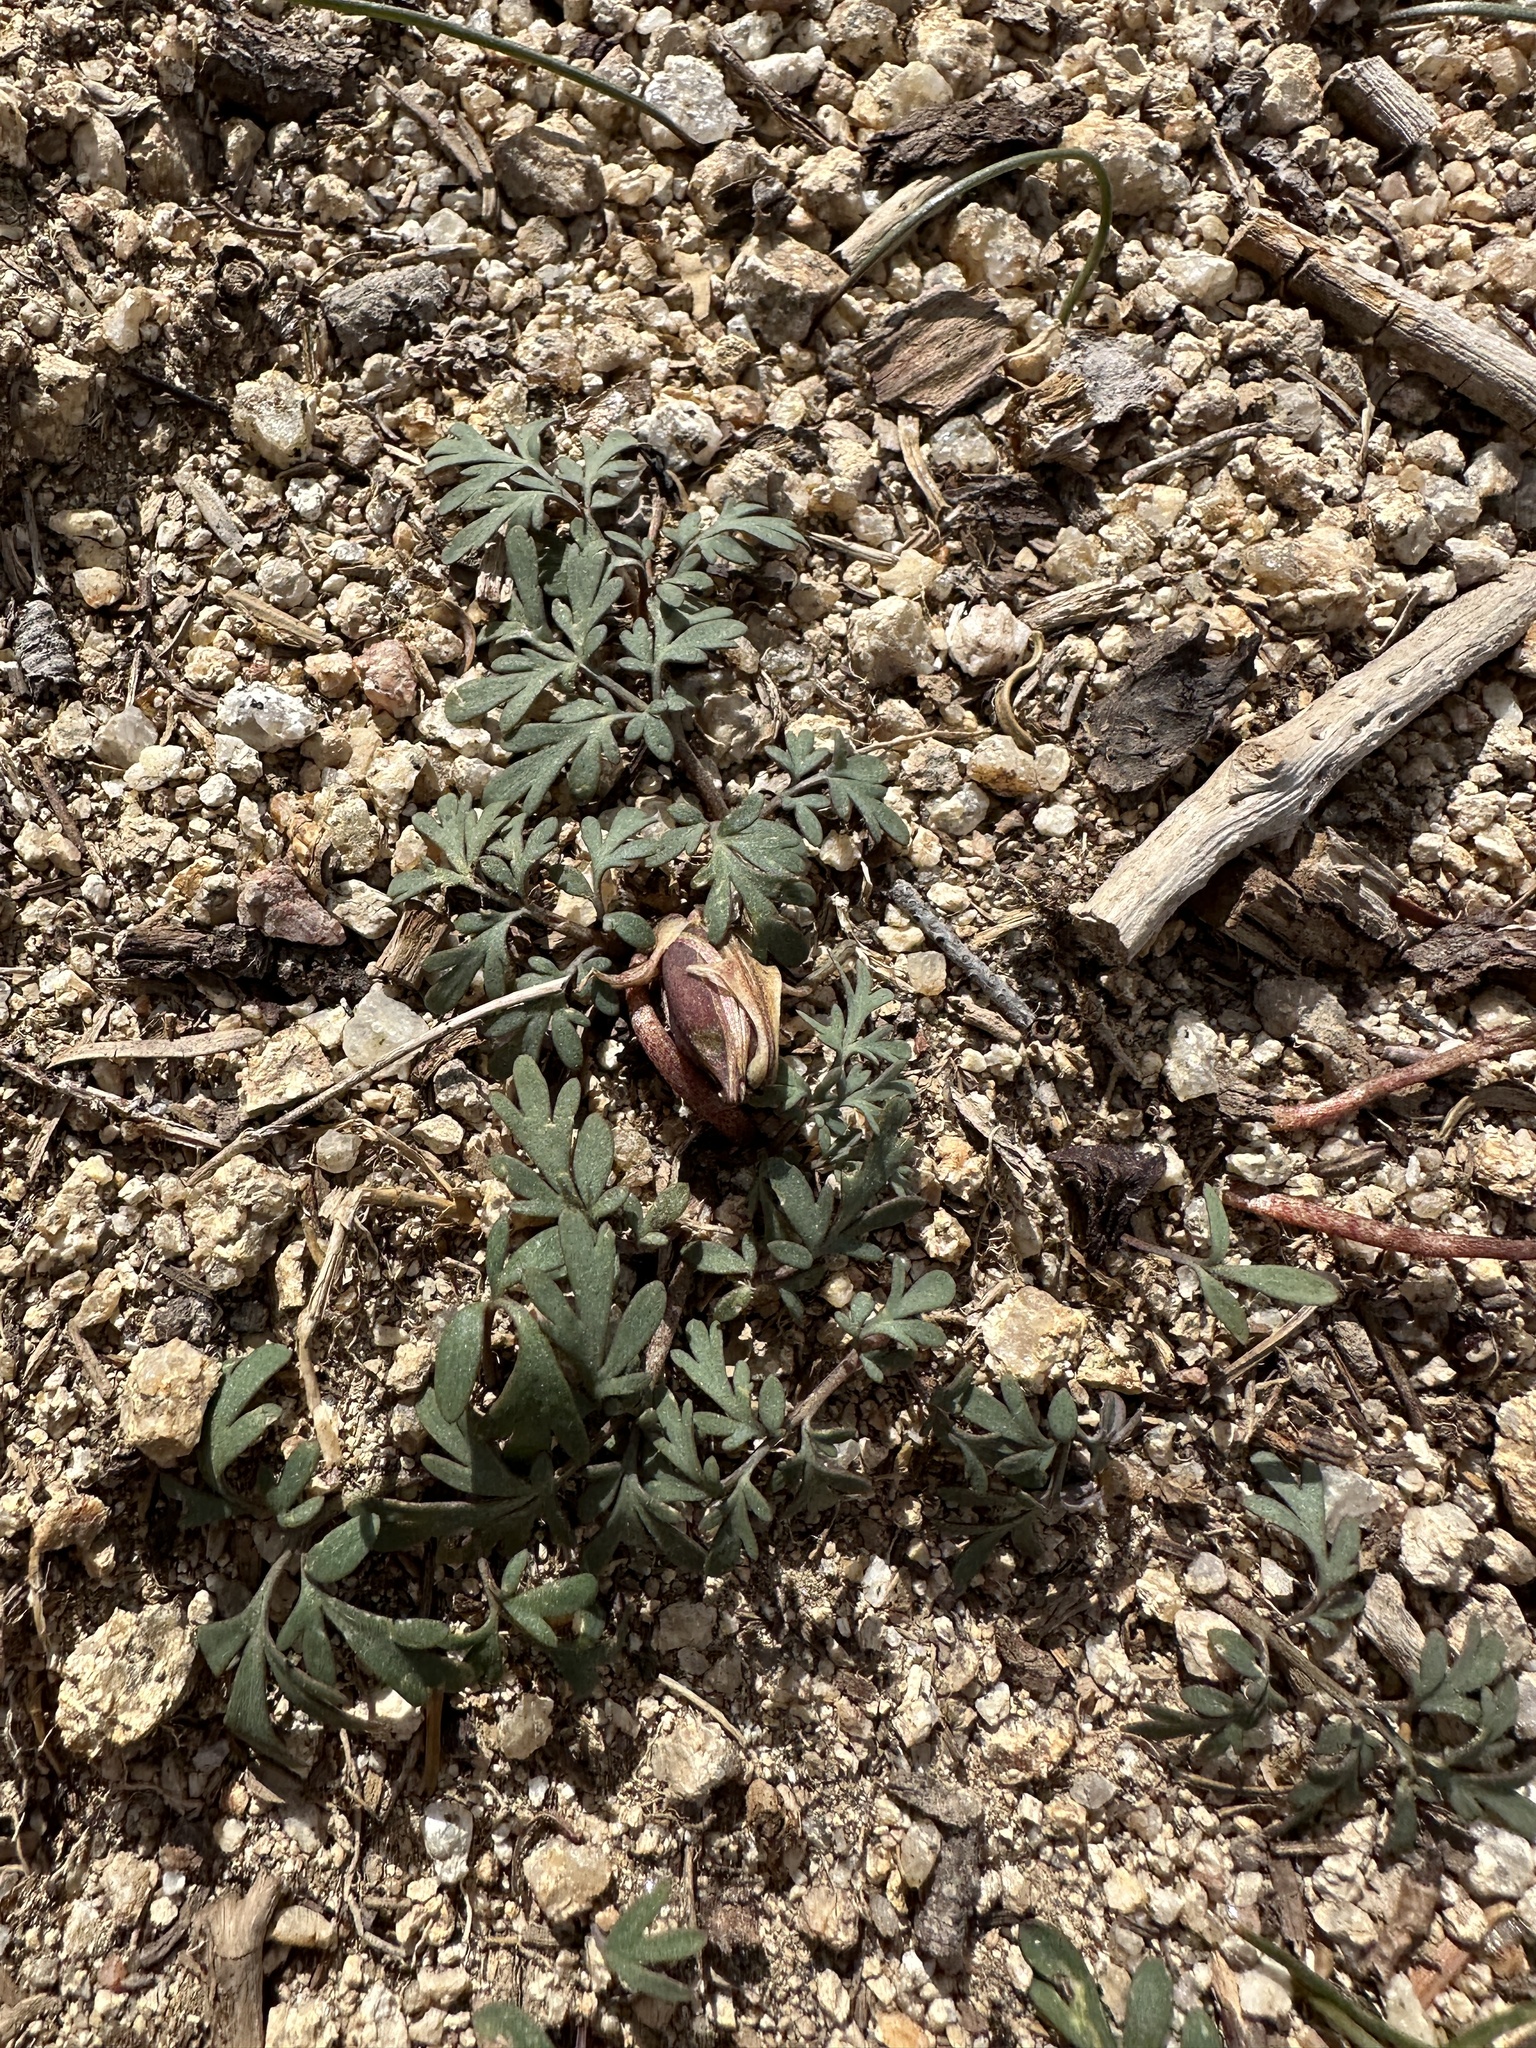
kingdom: Plantae
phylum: Tracheophyta
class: Magnoliopsida
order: Ranunculales
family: Papaveraceae
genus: Dicentra
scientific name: Dicentra uniflora
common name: Steer's-head
